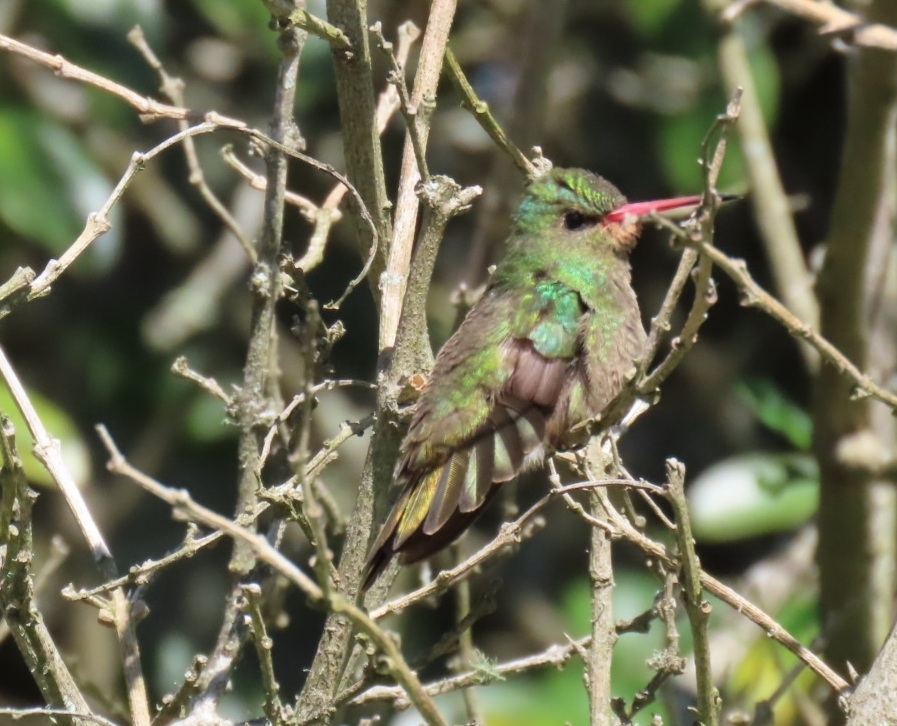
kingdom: Animalia
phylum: Chordata
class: Aves
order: Apodiformes
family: Trochilidae
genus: Hylocharis
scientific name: Hylocharis chrysura
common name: Gilded sapphire
